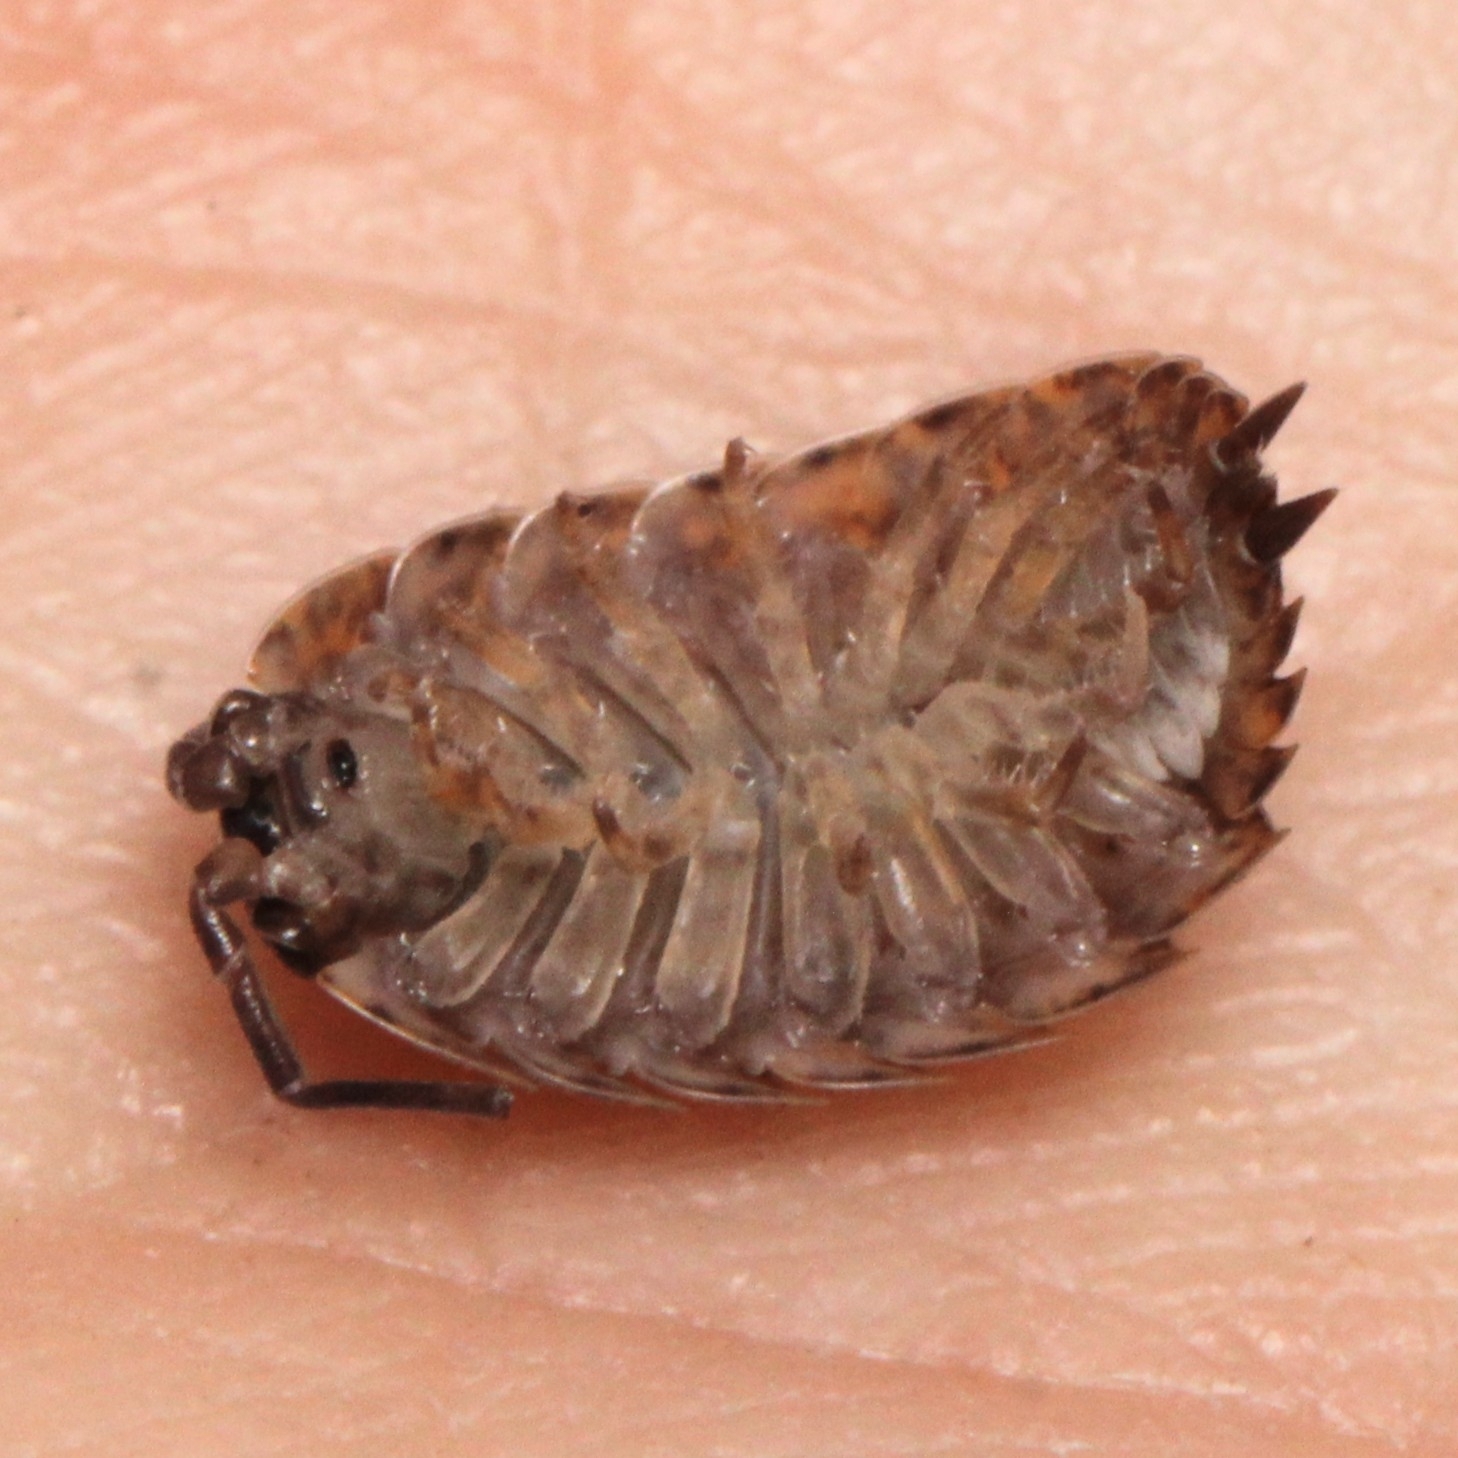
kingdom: Animalia
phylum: Arthropoda
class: Malacostraca
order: Isopoda
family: Trachelipodidae
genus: Trachelipus
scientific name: Trachelipus rathkii
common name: Isopod
